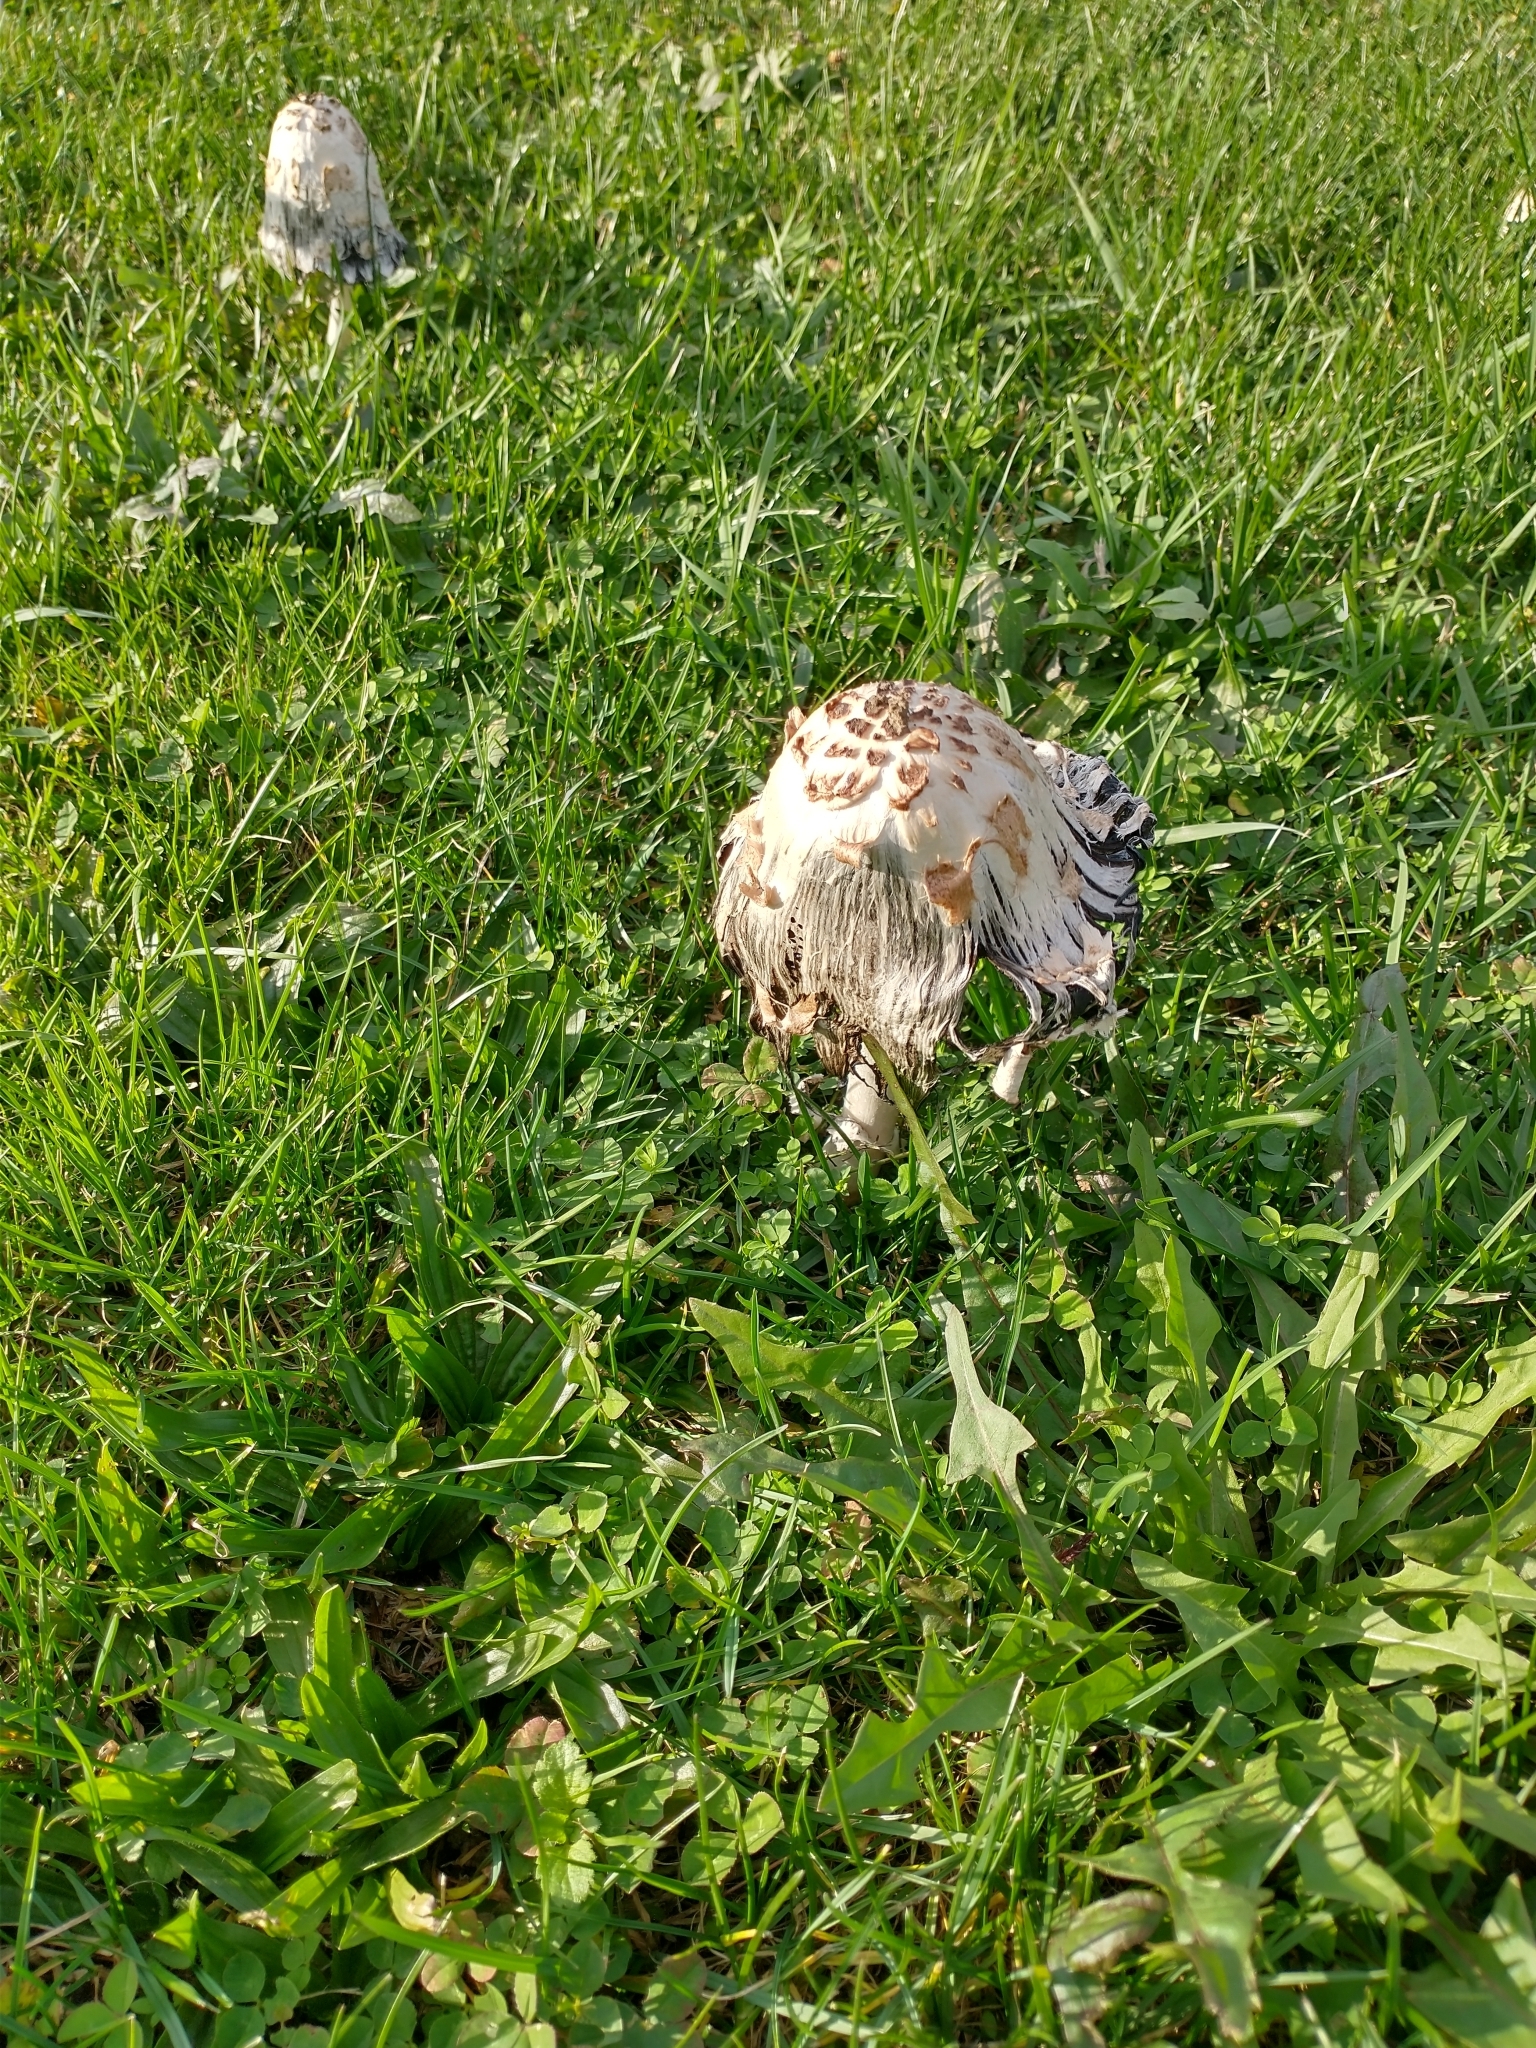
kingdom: Fungi
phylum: Basidiomycota
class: Agaricomycetes
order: Agaricales
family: Agaricaceae
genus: Coprinus
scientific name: Coprinus comatus
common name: Lawyer's wig
